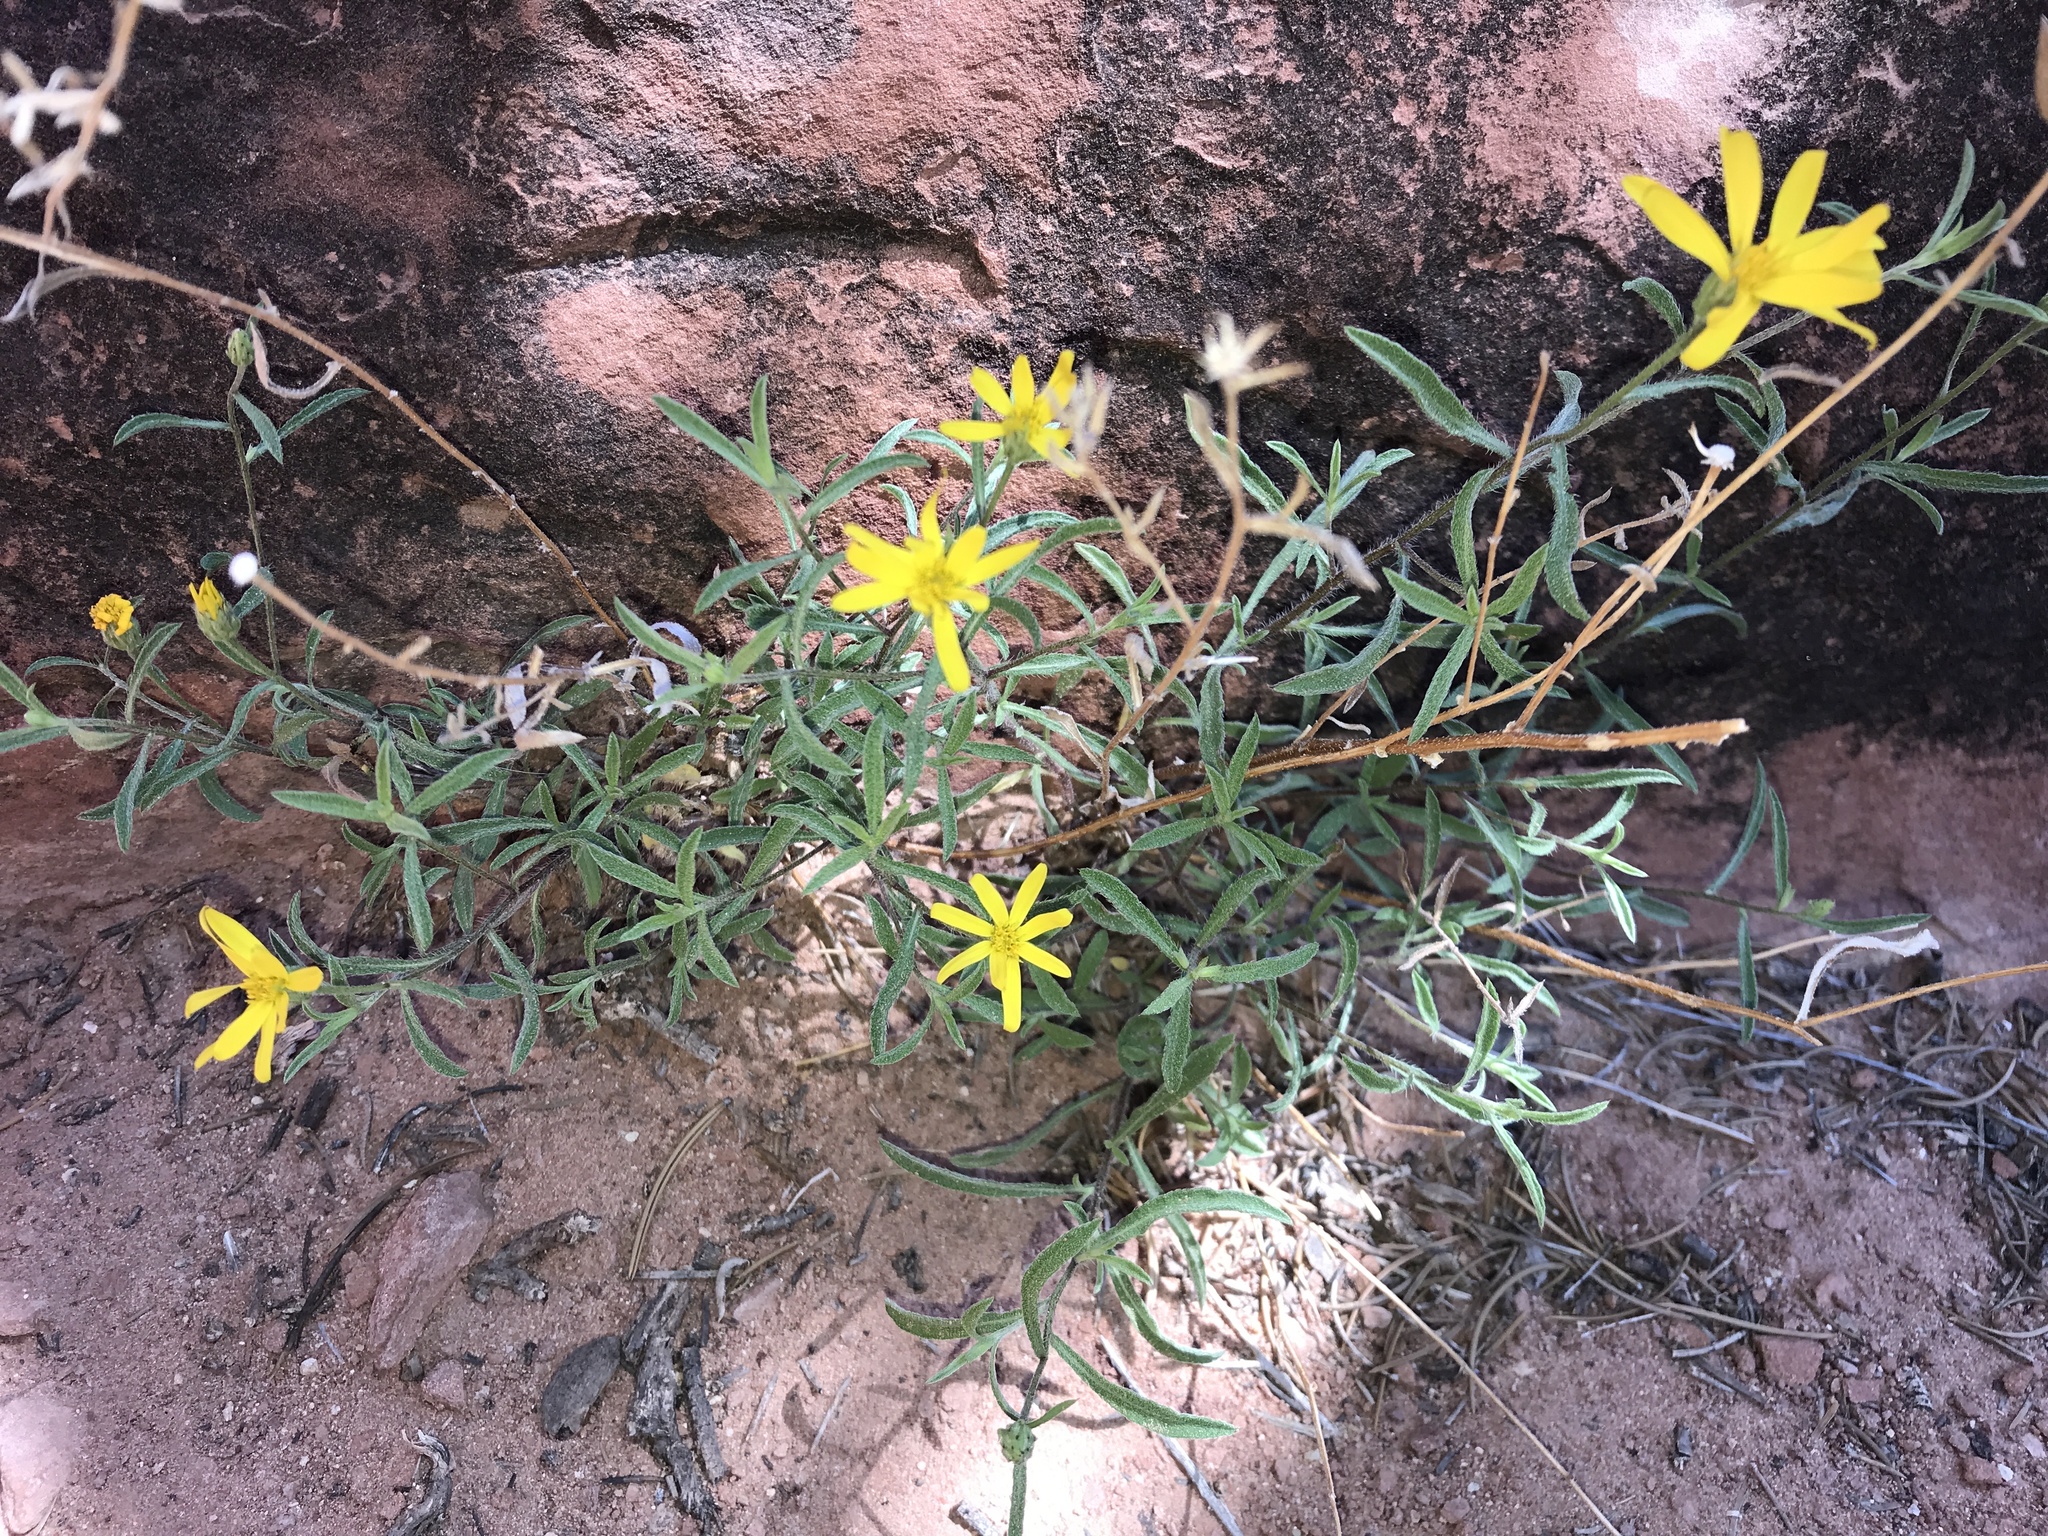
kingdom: Plantae
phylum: Tracheophyta
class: Magnoliopsida
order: Asterales
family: Asteraceae
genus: Heterotheca
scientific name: Heterotheca polothrix
